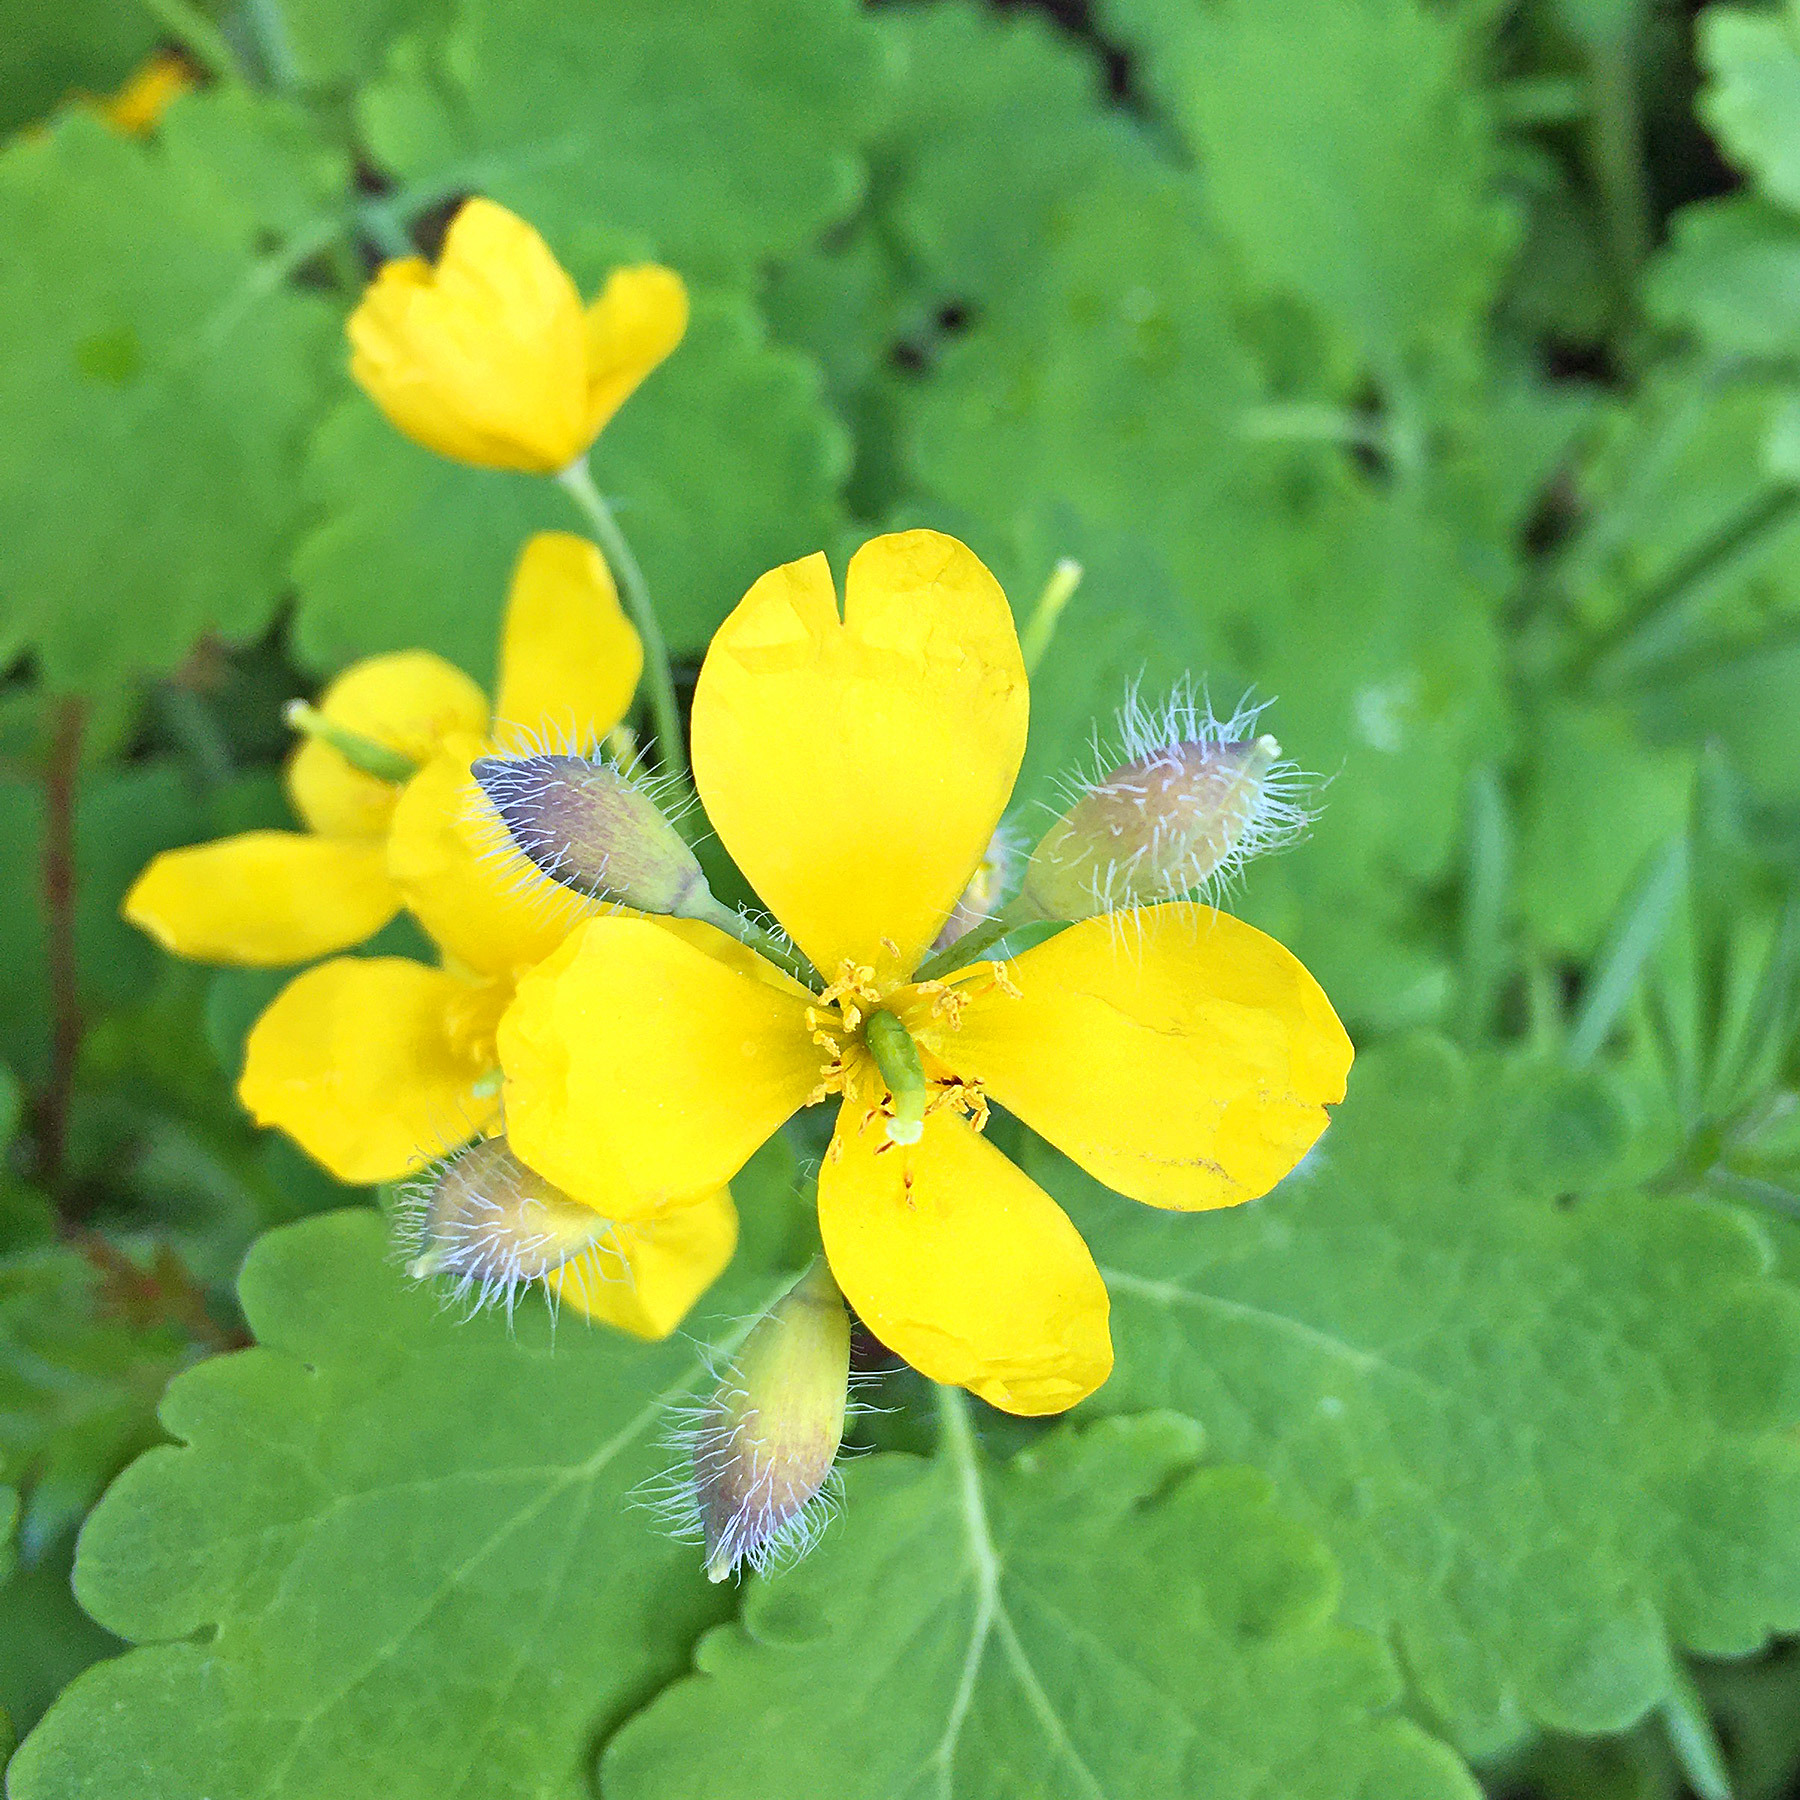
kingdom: Plantae
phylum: Tracheophyta
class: Magnoliopsida
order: Ranunculales
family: Papaveraceae
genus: Chelidonium
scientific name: Chelidonium majus
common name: Greater celandine
